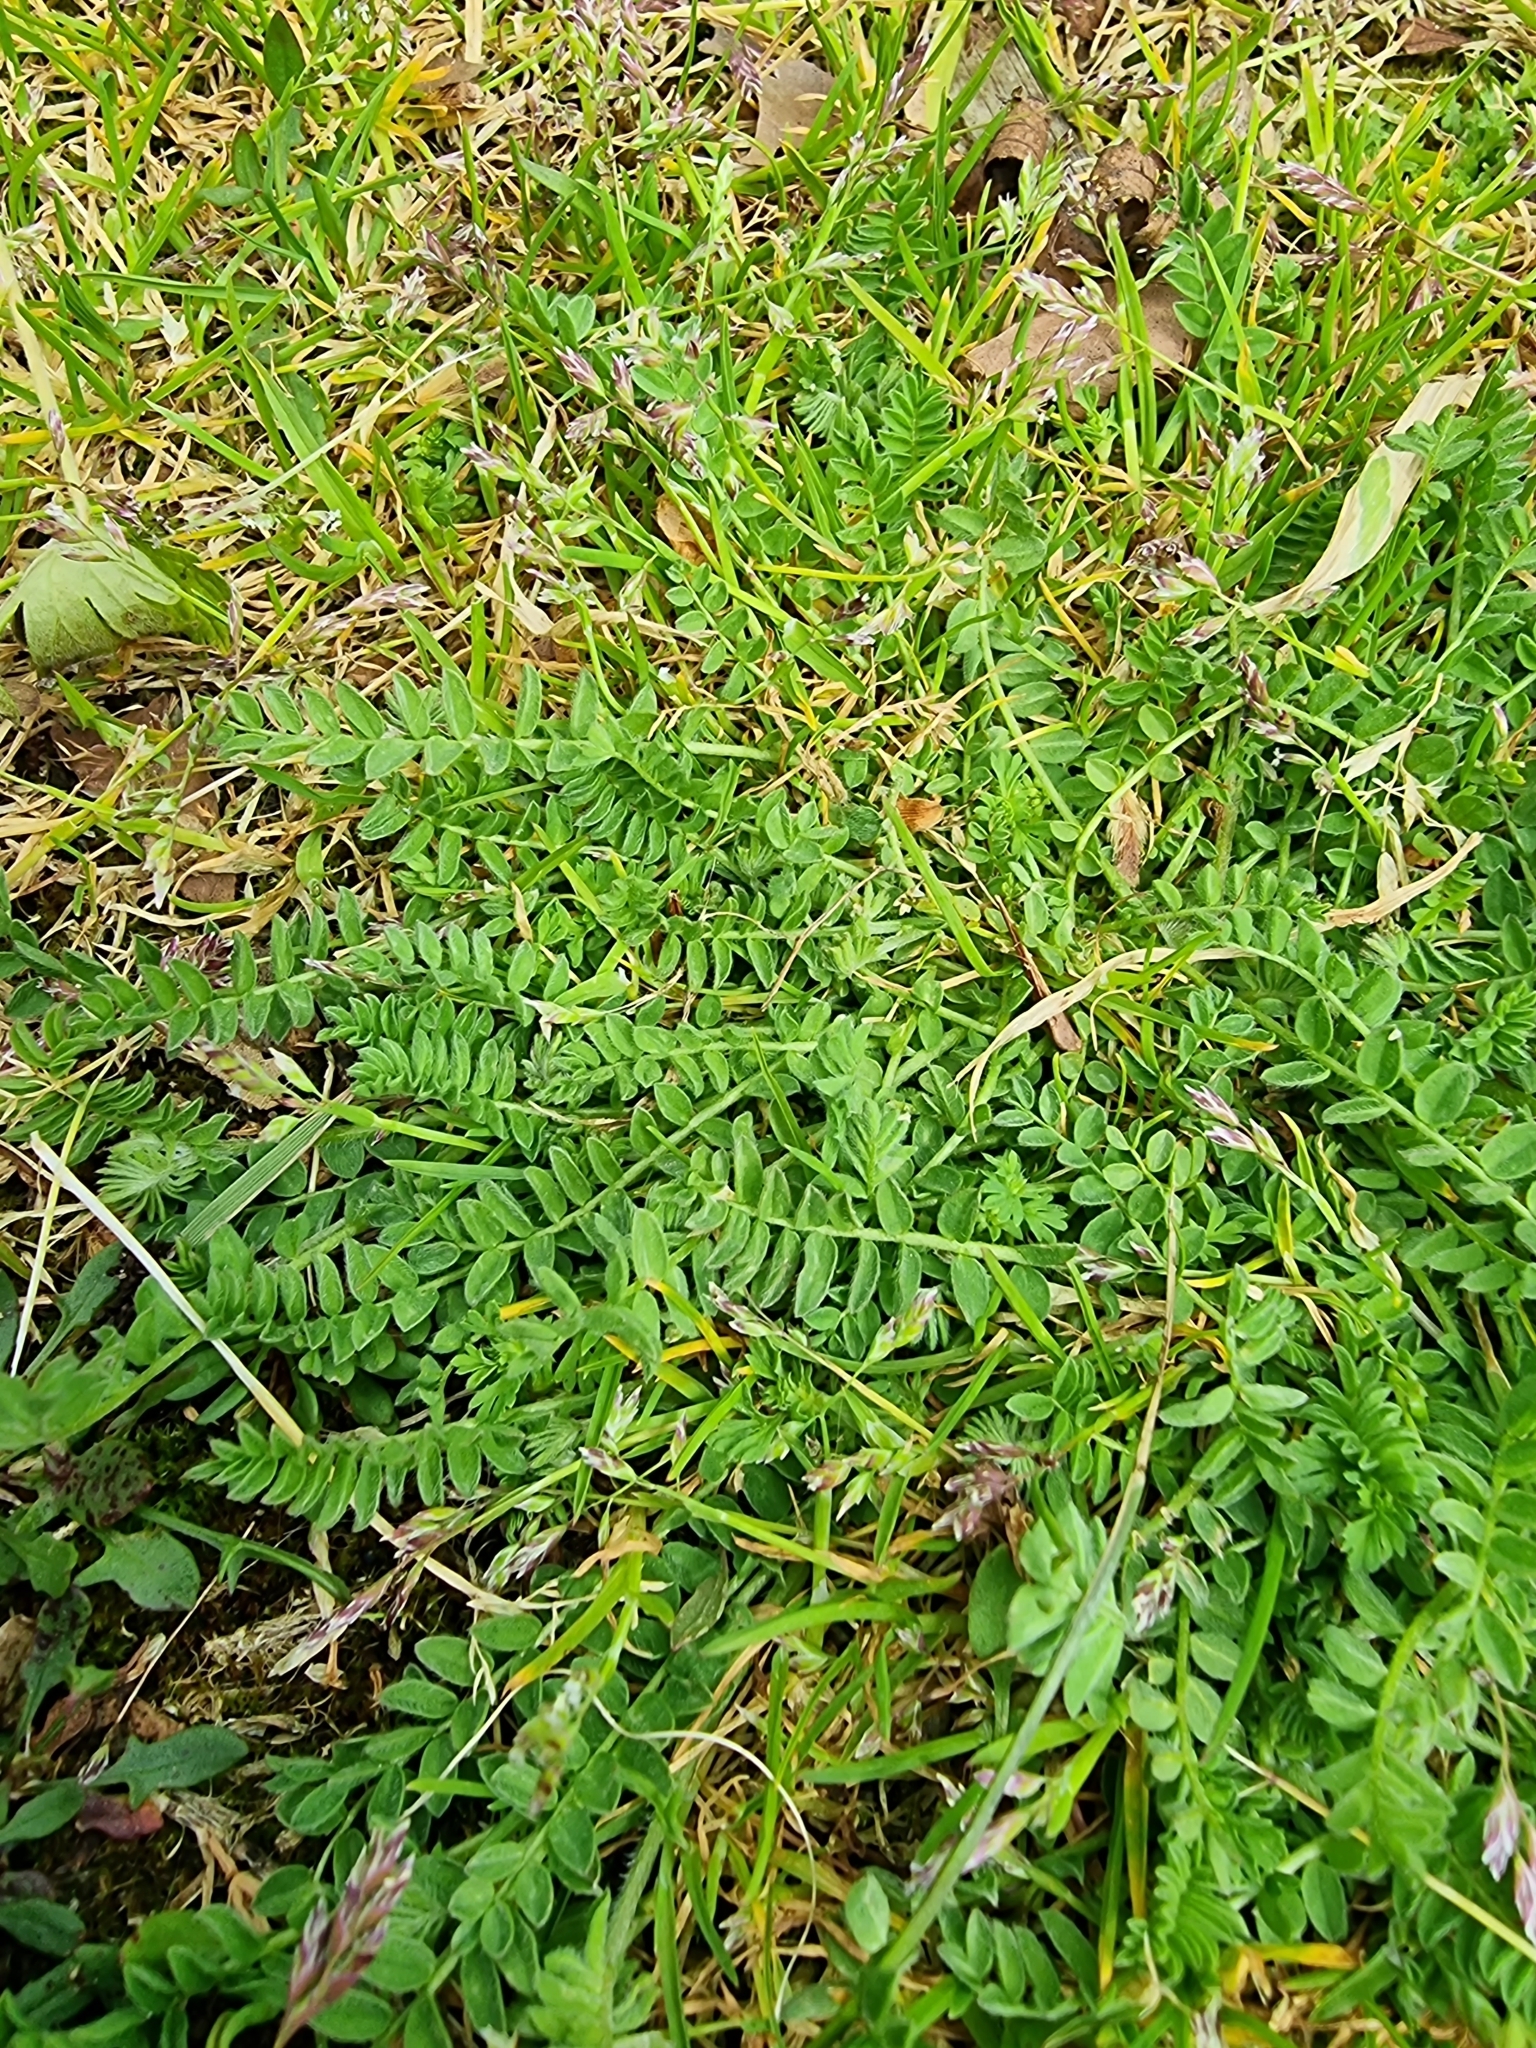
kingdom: Plantae
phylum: Tracheophyta
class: Magnoliopsida
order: Fabales
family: Fabaceae
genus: Ornithopus
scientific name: Ornithopus perpusillus
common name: Bird's-foot
